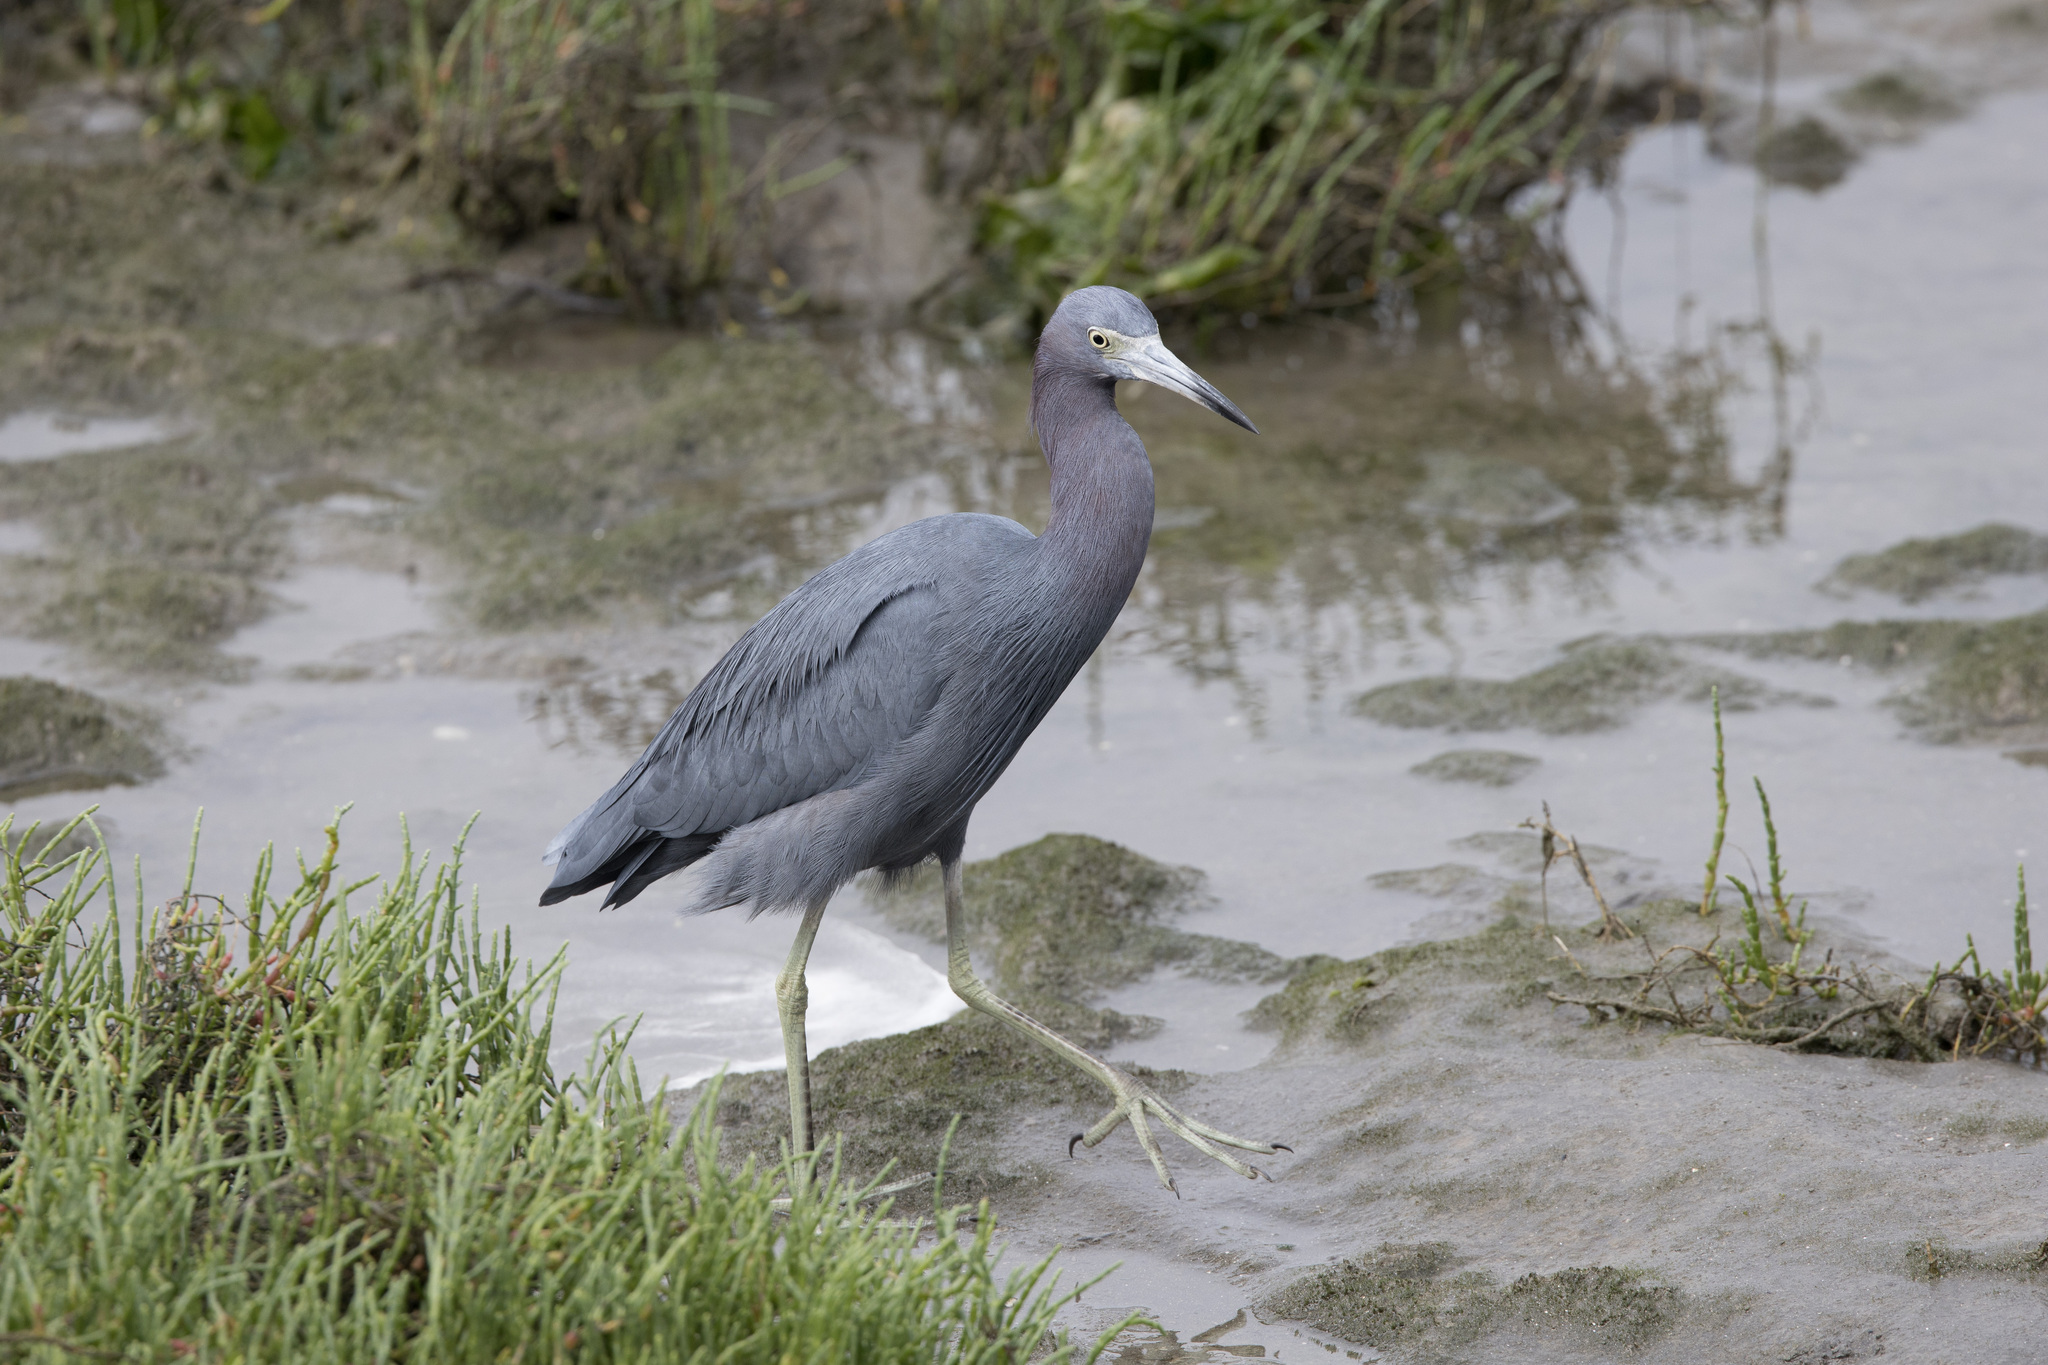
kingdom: Animalia
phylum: Chordata
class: Aves
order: Pelecaniformes
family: Ardeidae
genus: Egretta
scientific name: Egretta caerulea
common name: Little blue heron
